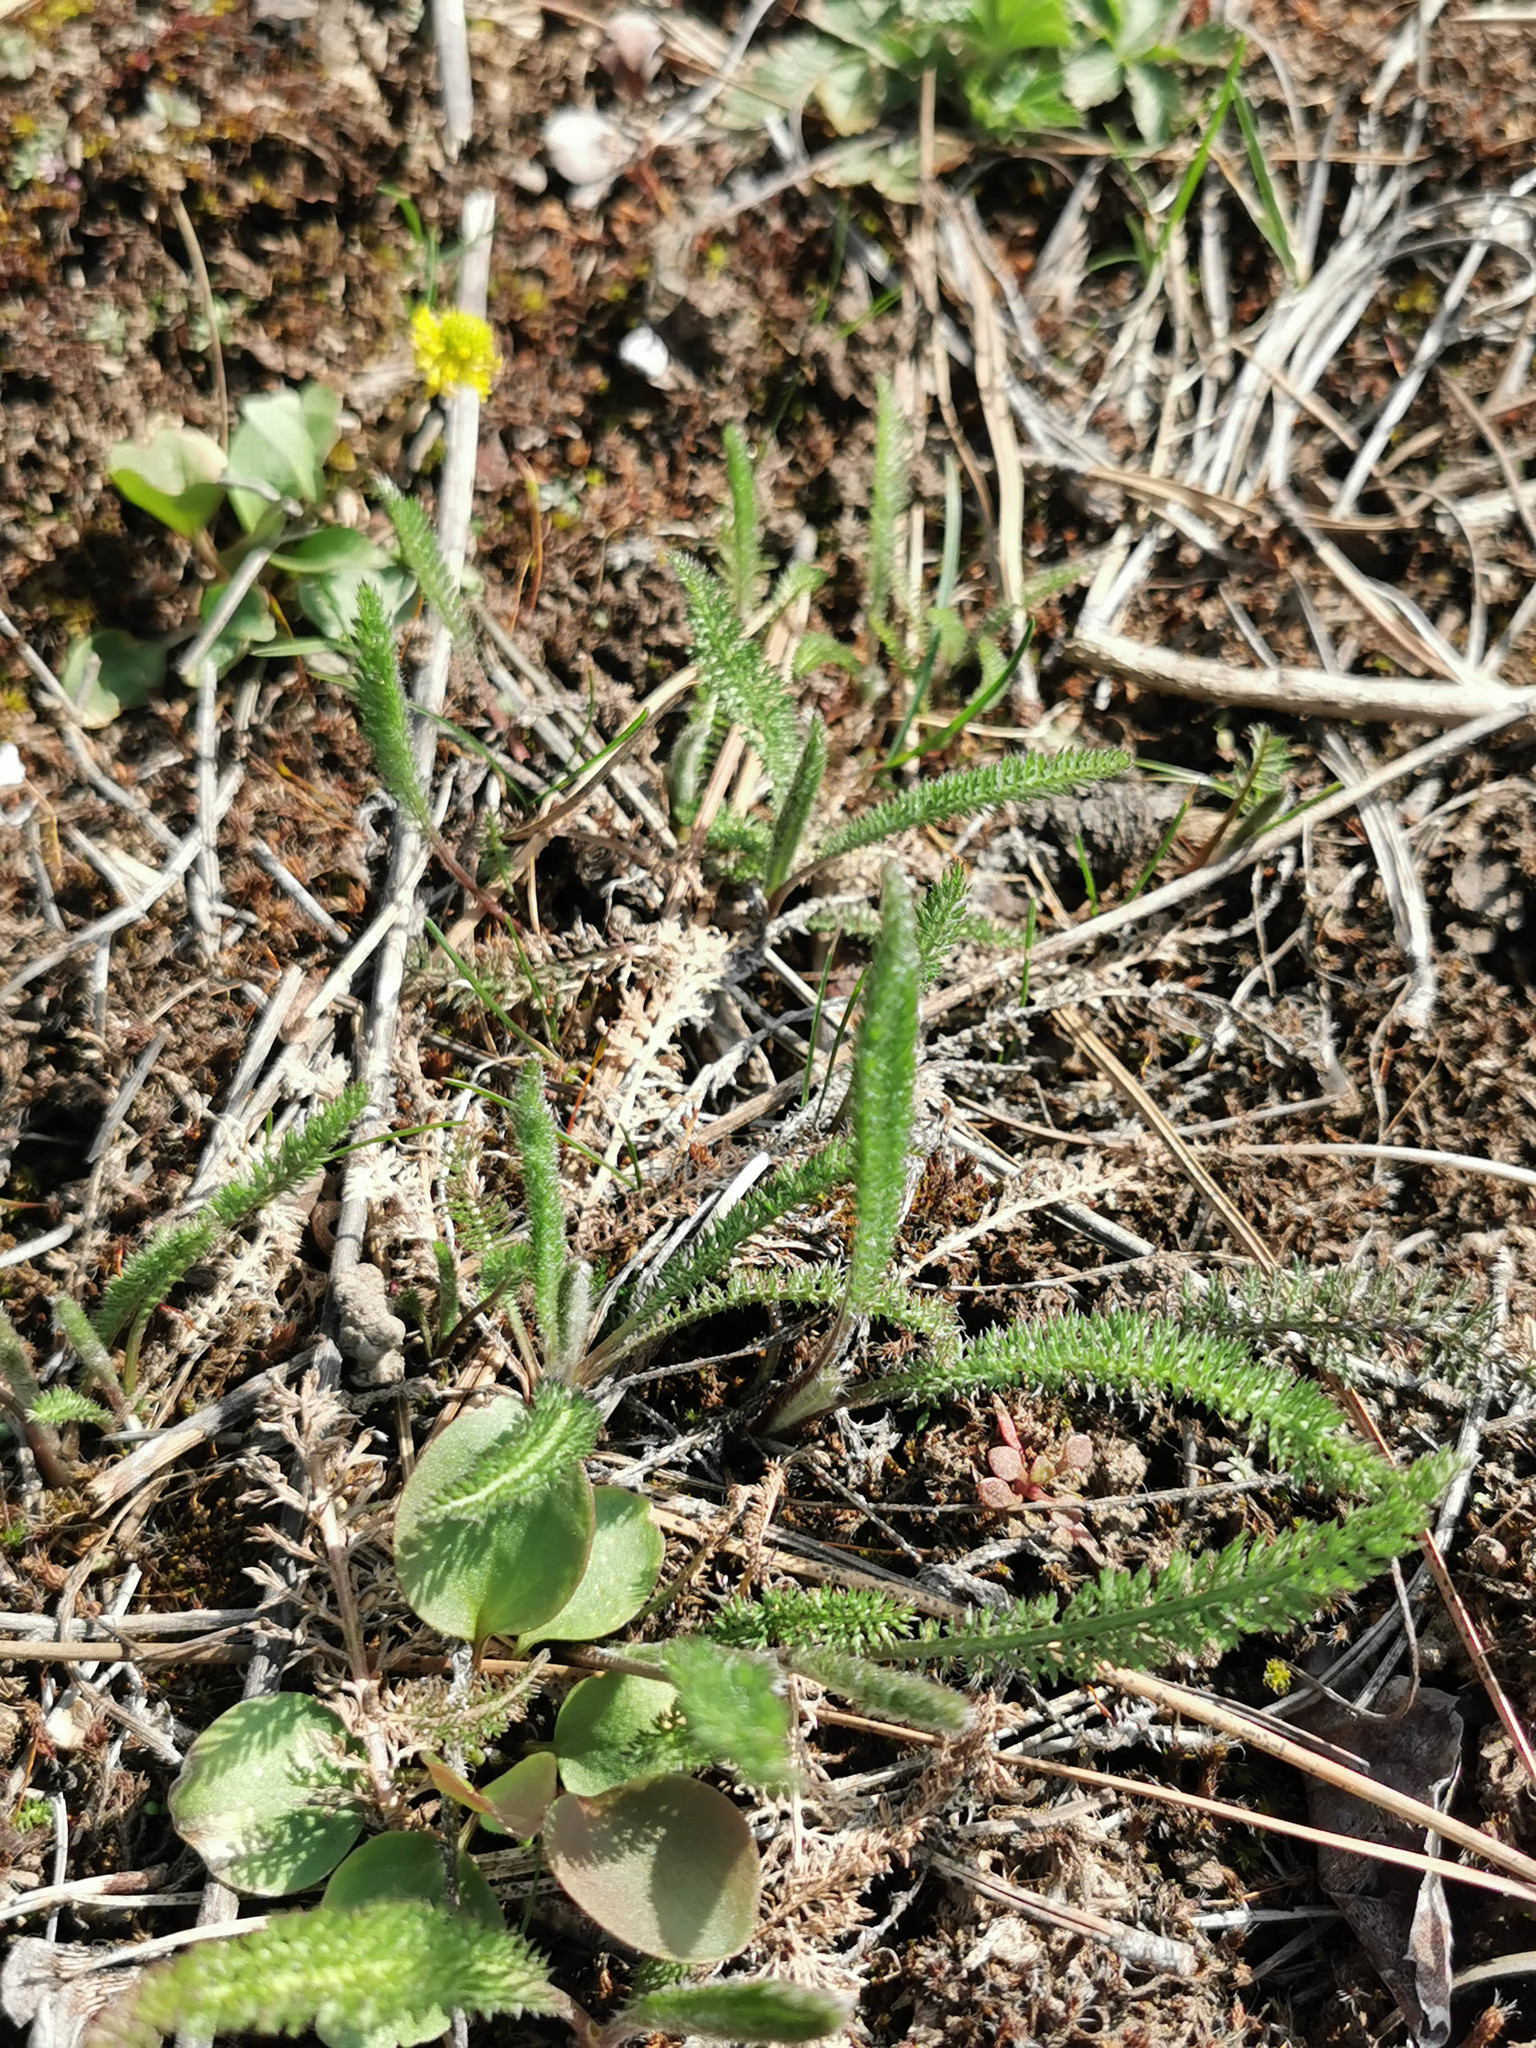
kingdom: Plantae
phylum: Tracheophyta
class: Magnoliopsida
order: Asterales
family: Asteraceae
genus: Achillea
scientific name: Achillea millefolium
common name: Yarrow
